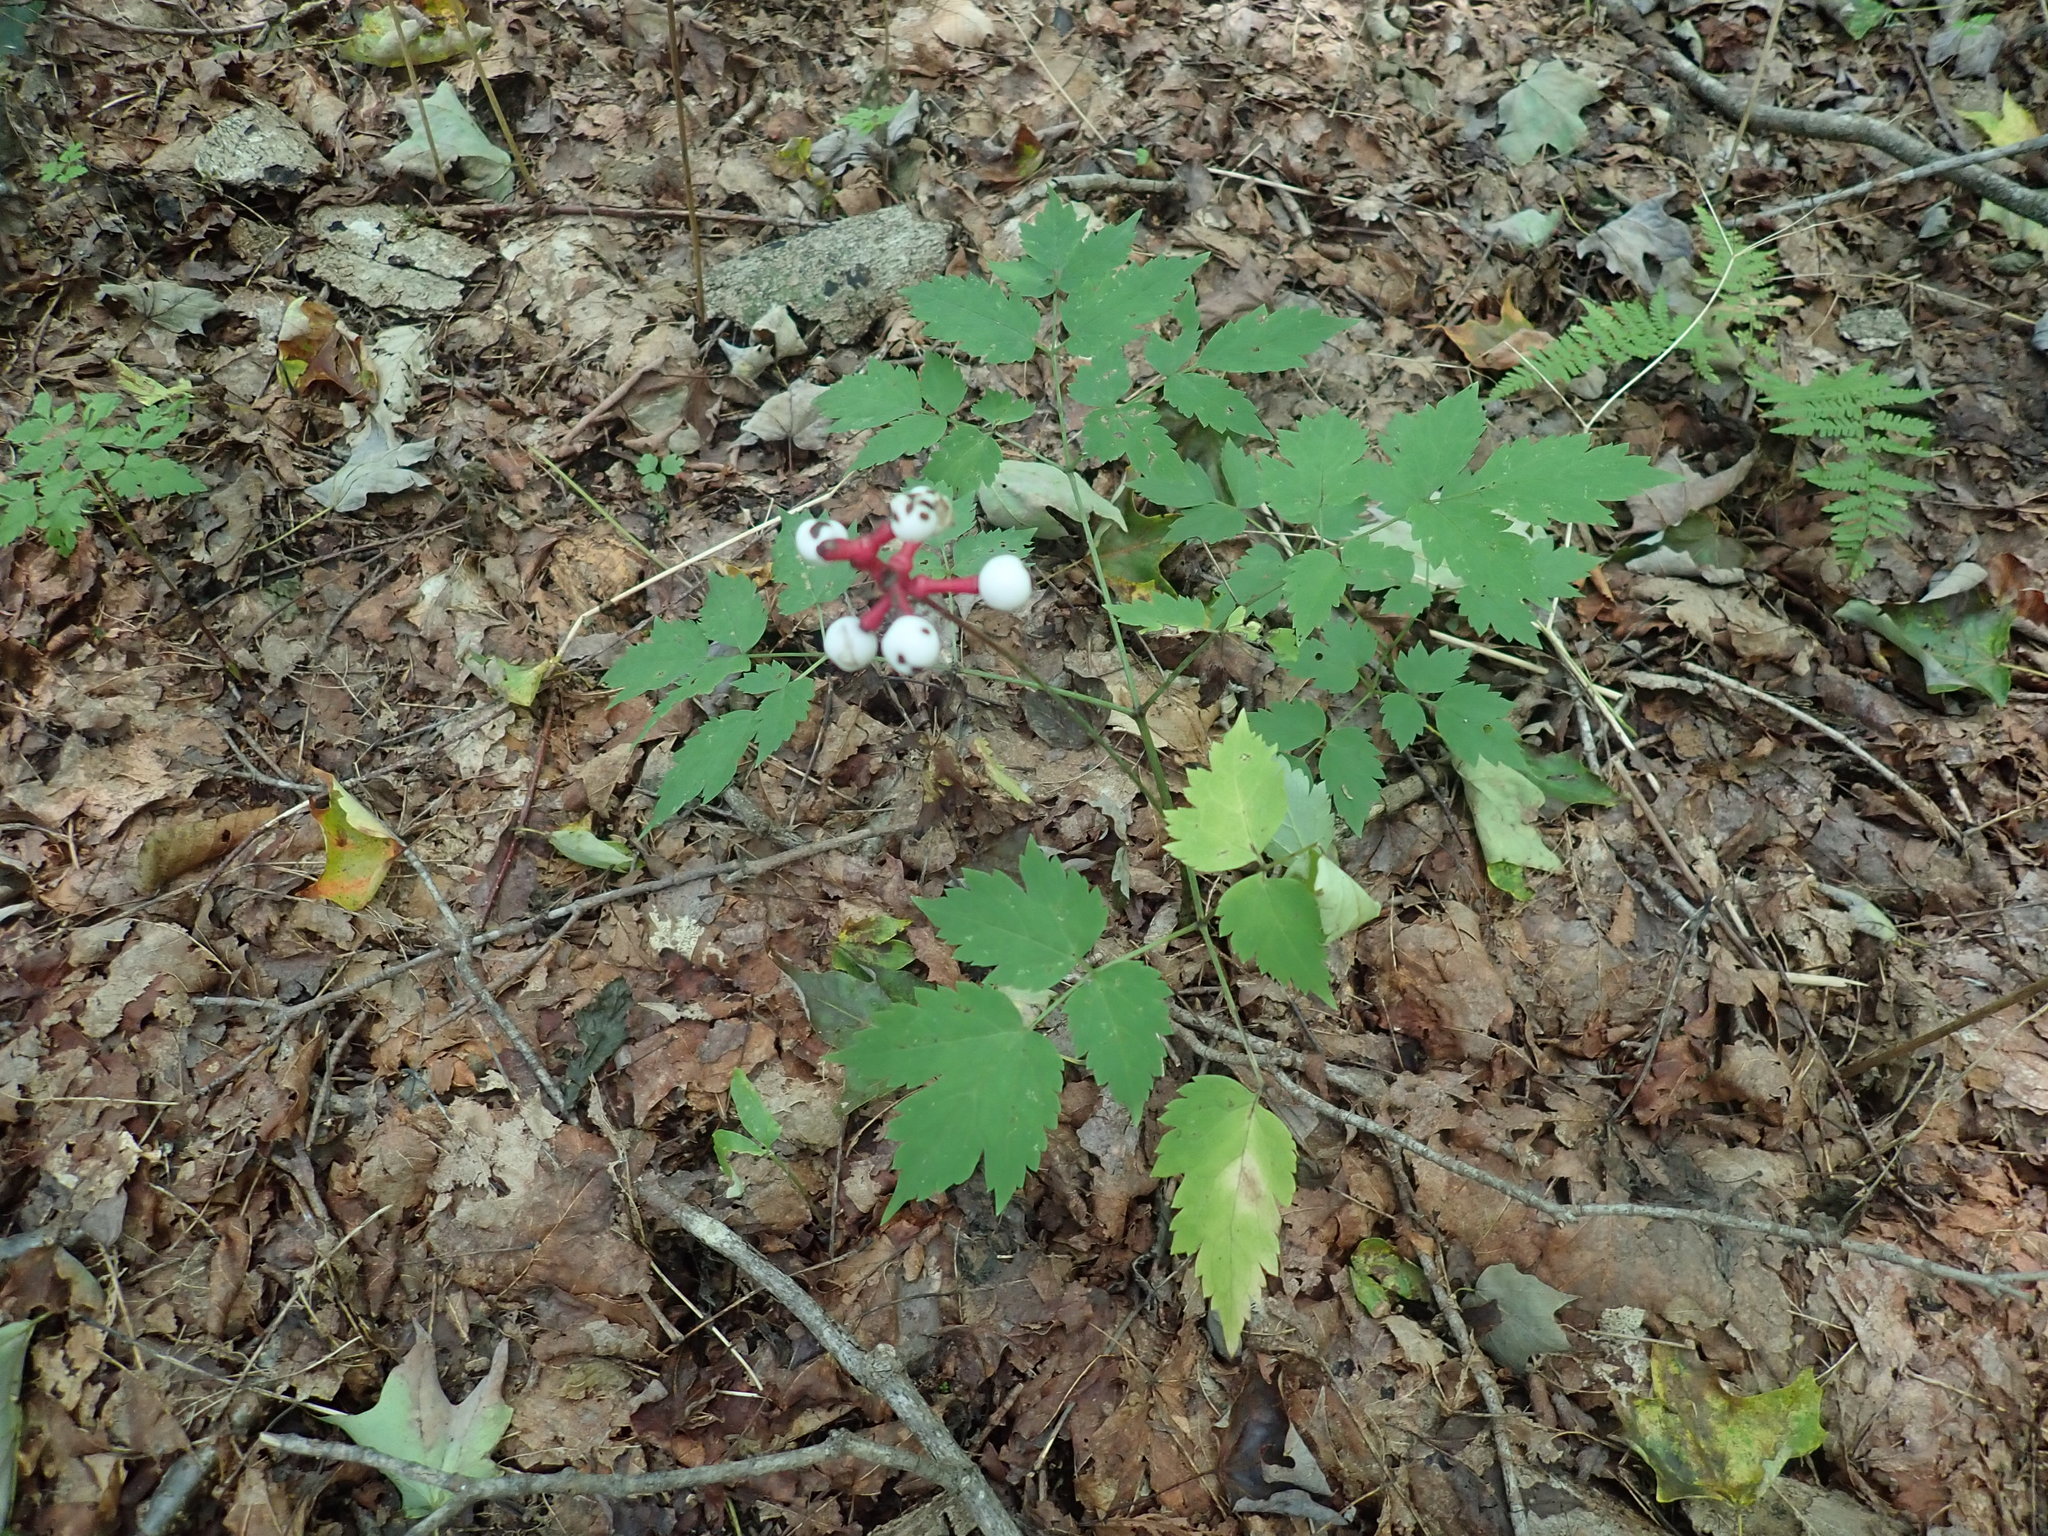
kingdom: Plantae
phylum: Tracheophyta
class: Magnoliopsida
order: Ranunculales
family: Ranunculaceae
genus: Actaea
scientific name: Actaea pachypoda
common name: Doll's-eyes
